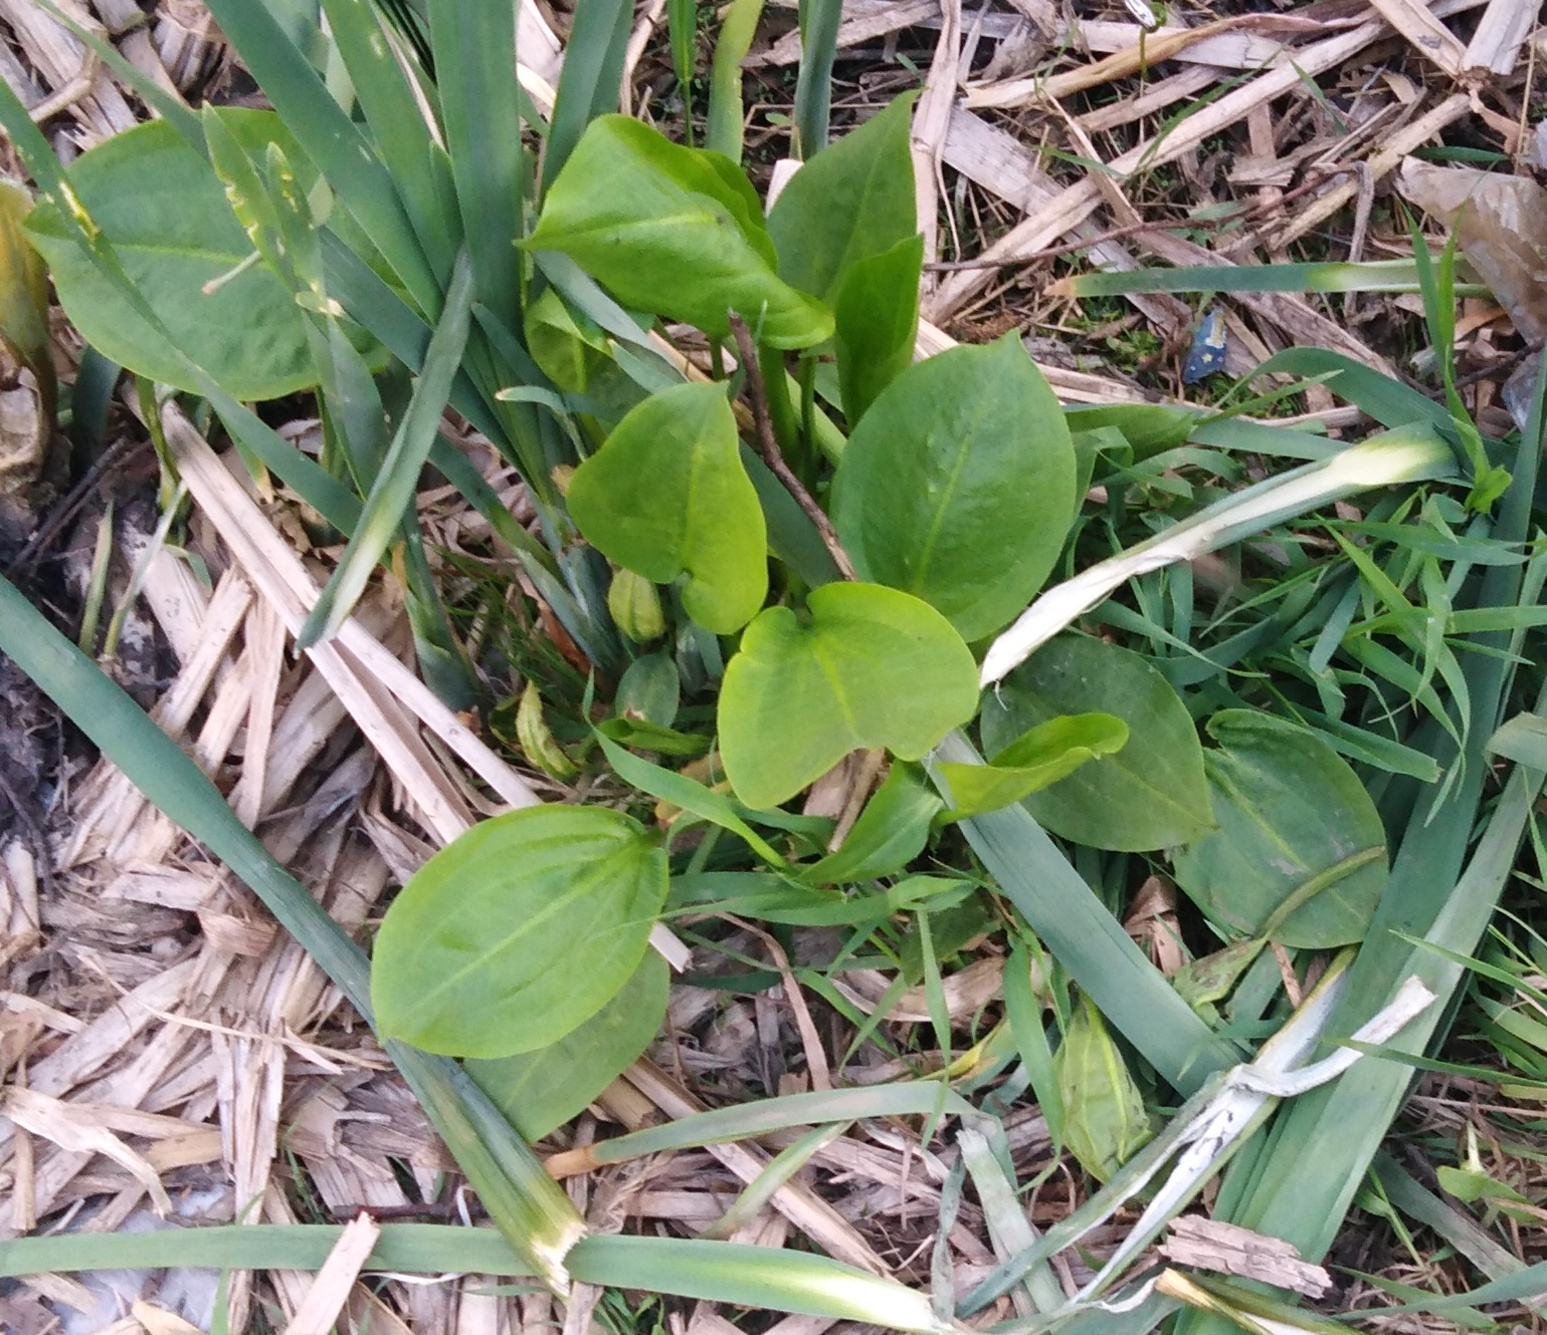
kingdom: Plantae
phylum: Tracheophyta
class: Liliopsida
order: Alismatales
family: Alismataceae
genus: Alisma
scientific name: Alisma plantago-aquatica
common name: Water-plantain
